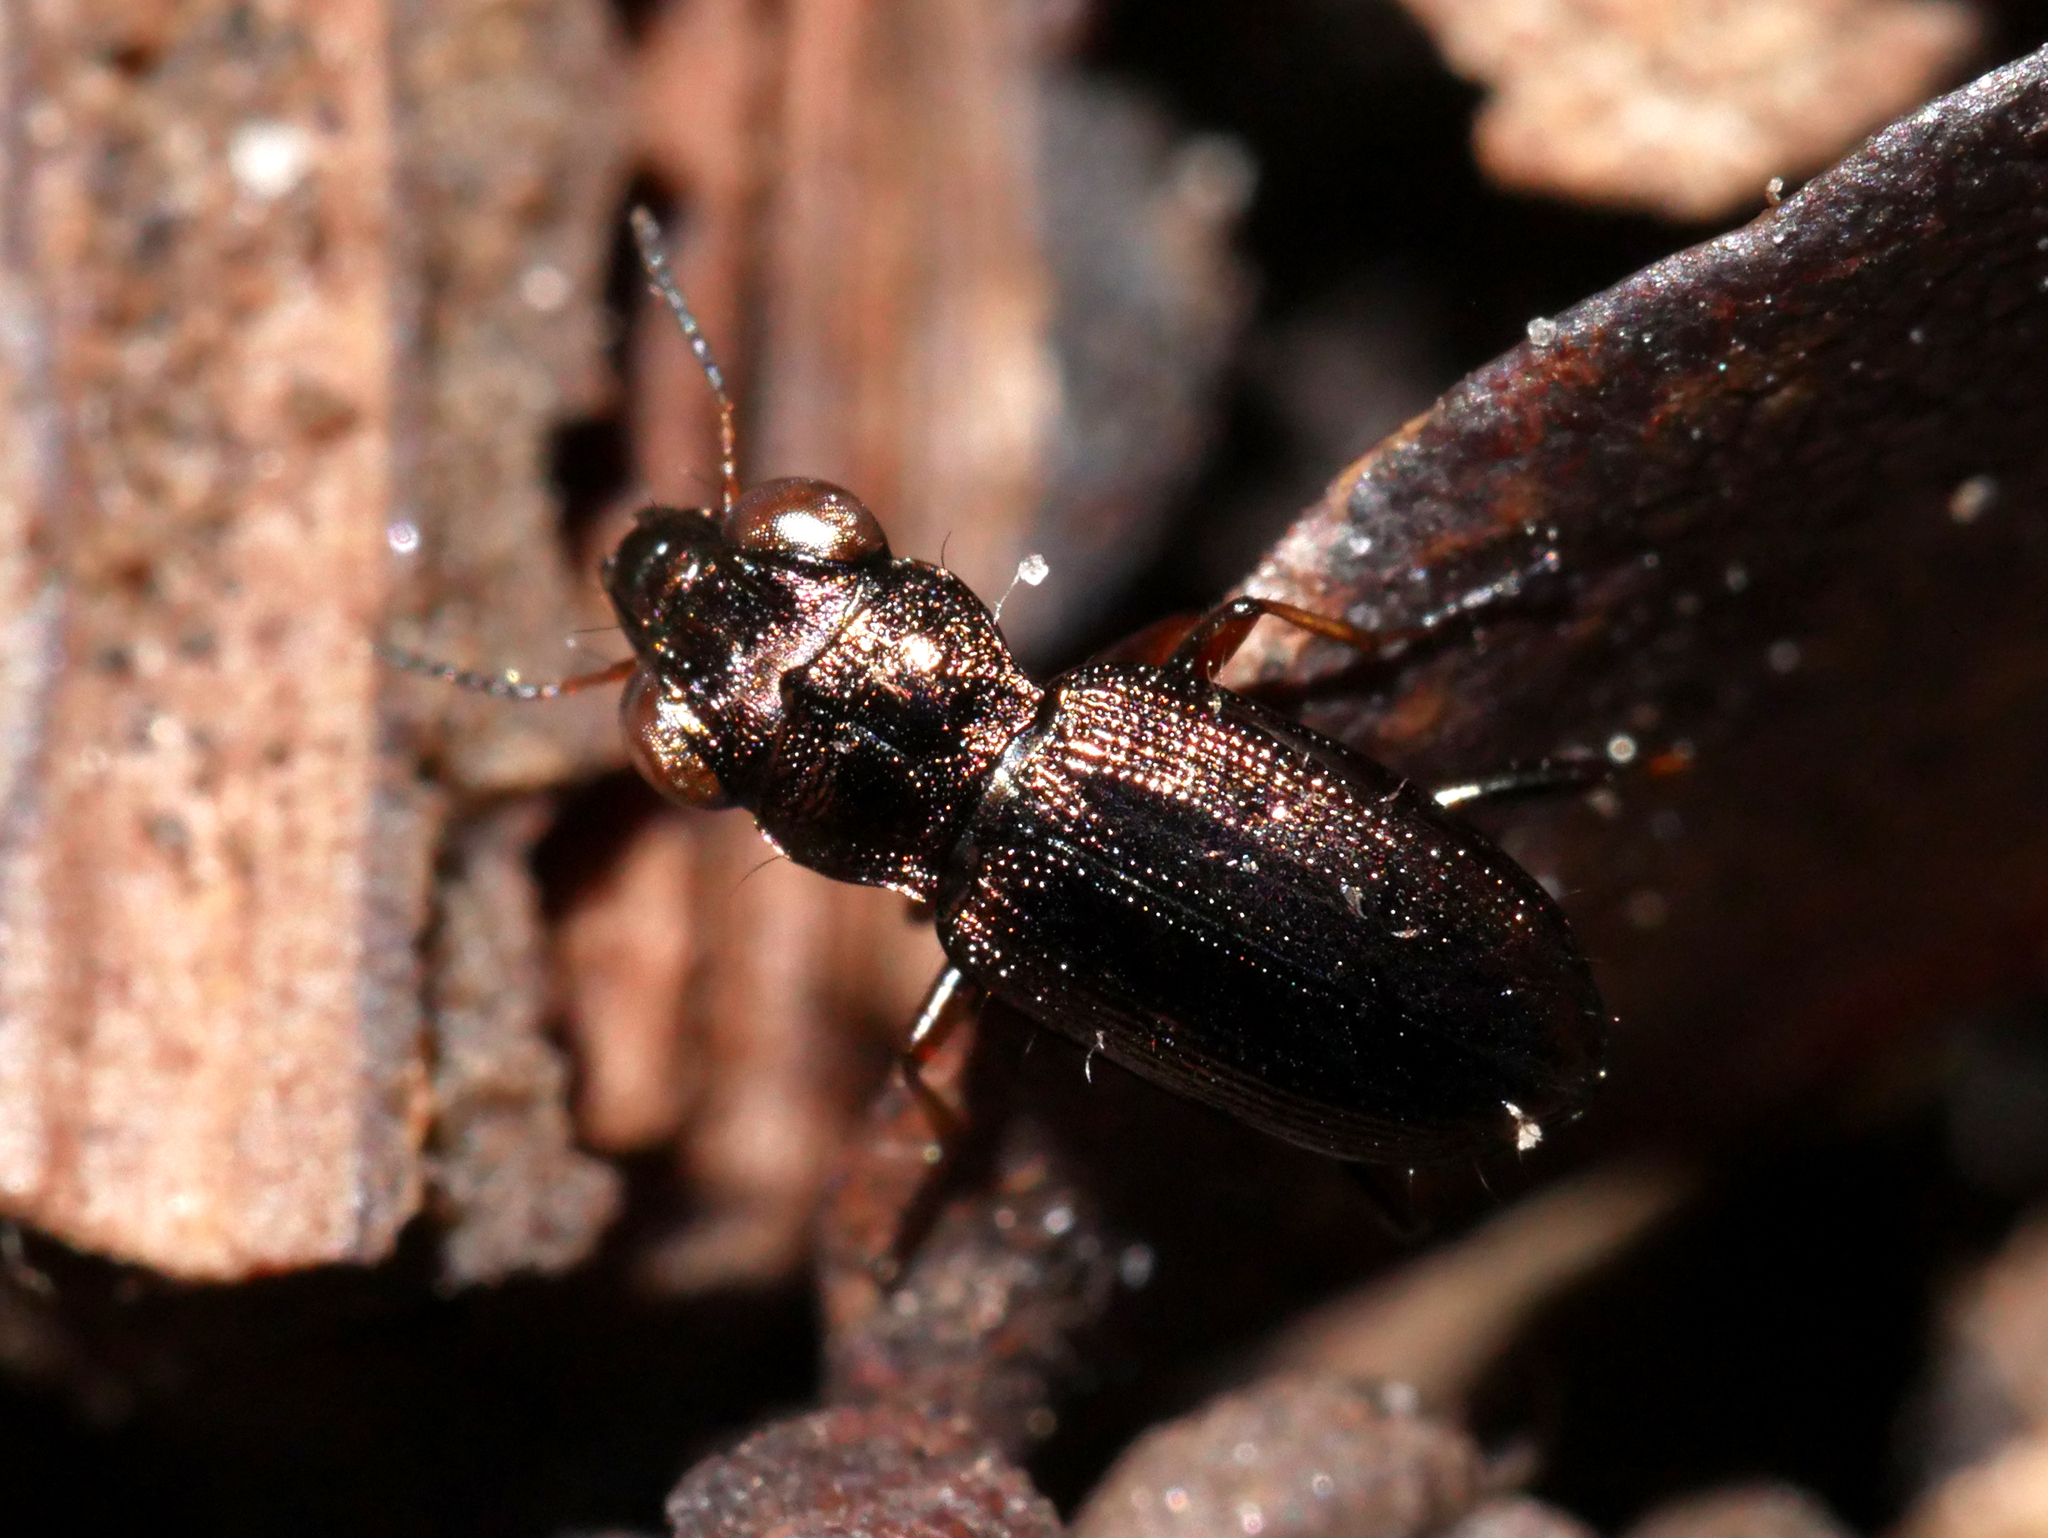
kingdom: Animalia
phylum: Arthropoda
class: Insecta
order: Coleoptera
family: Carabidae
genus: Notiophilus
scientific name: Notiophilus rufipes
